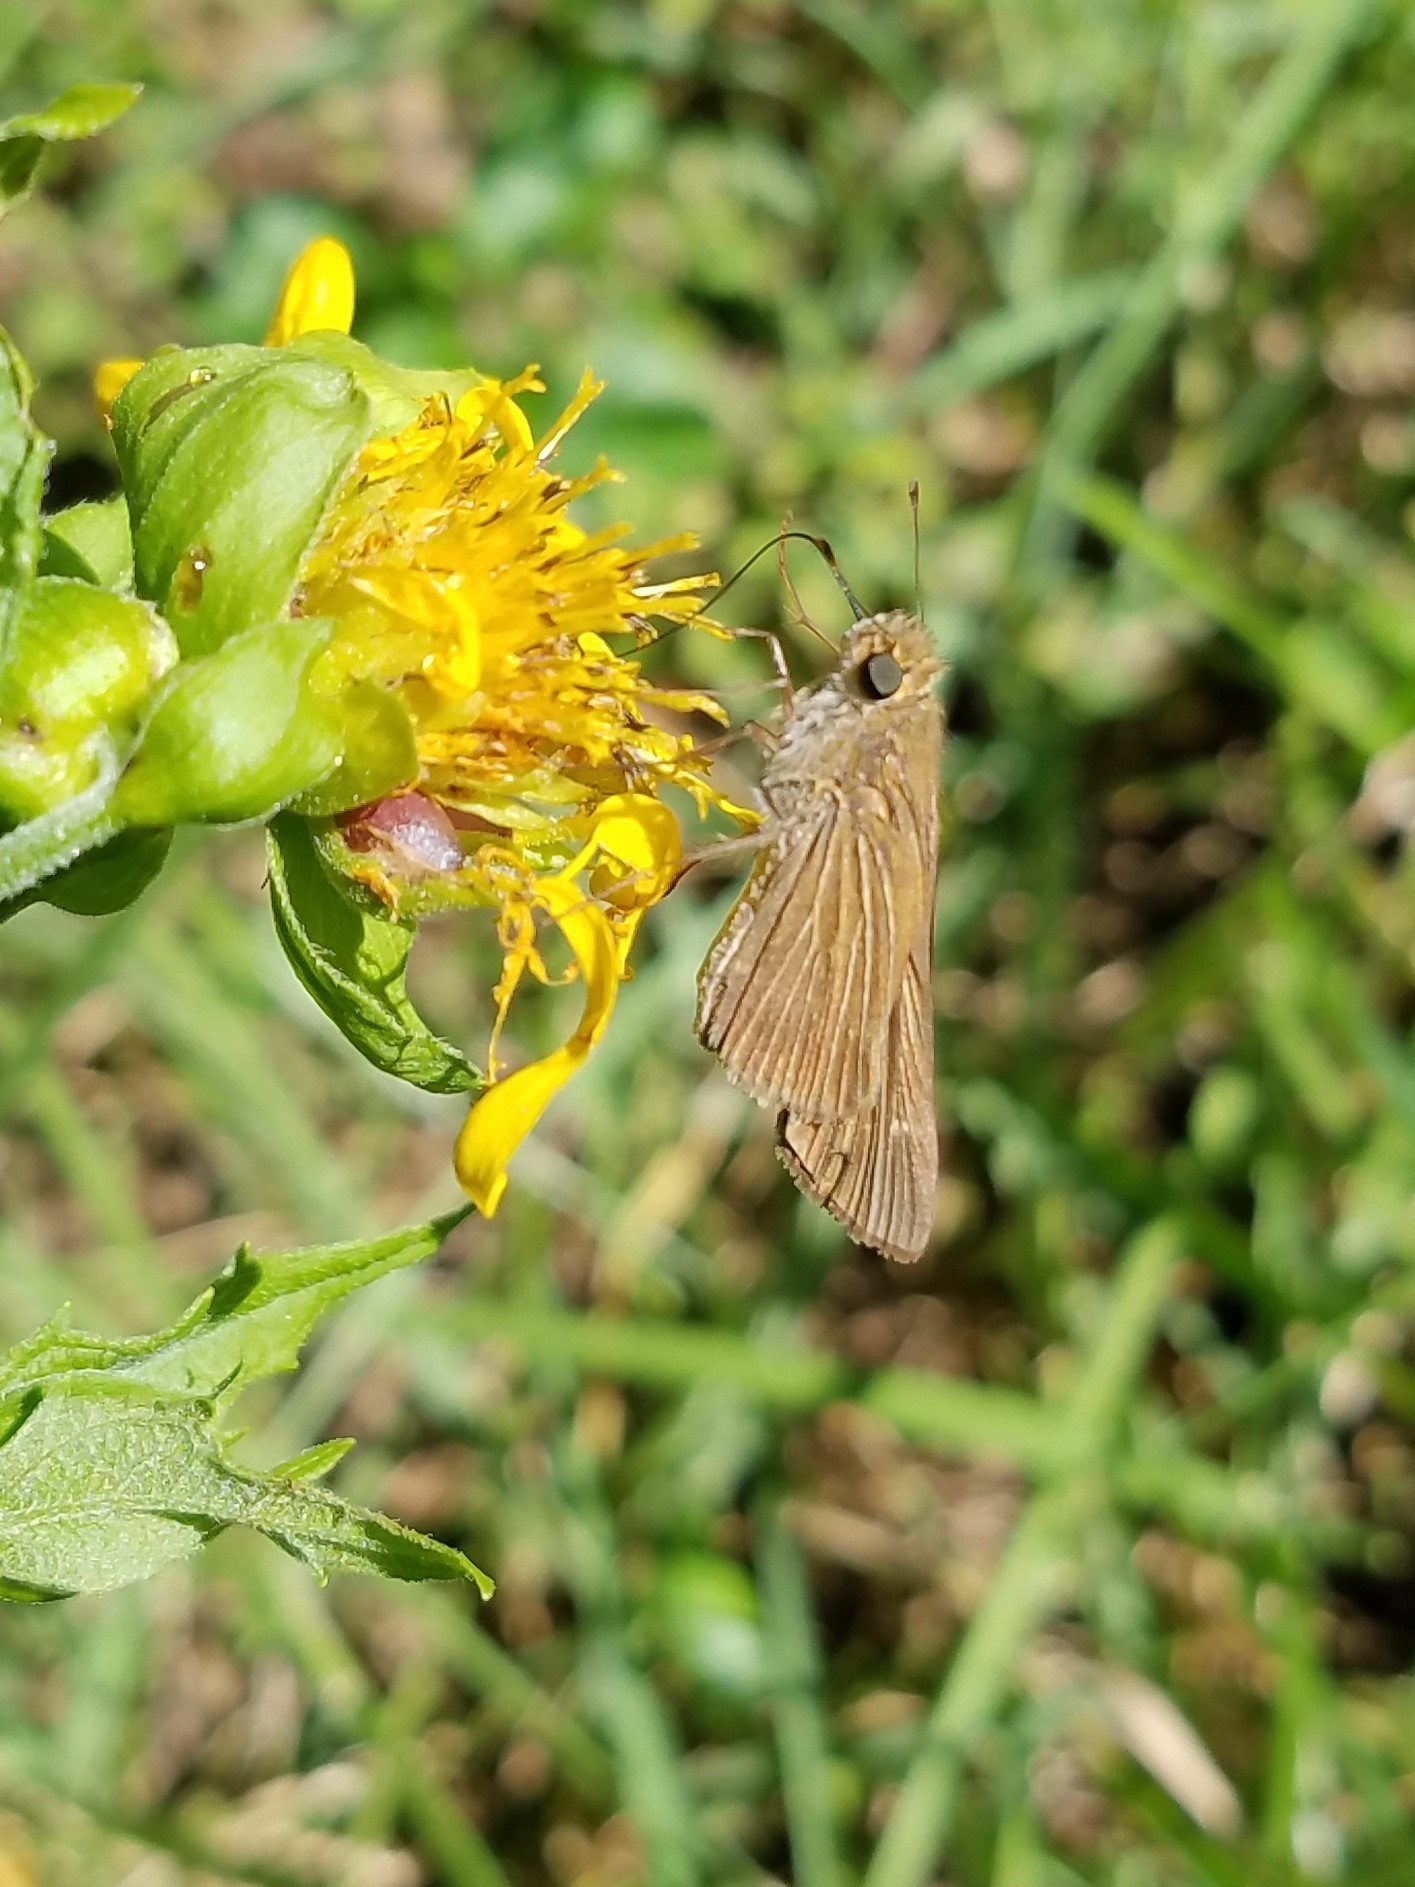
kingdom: Animalia
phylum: Arthropoda
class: Insecta
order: Lepidoptera
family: Hesperiidae
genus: Panoquina
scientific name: Panoquina ocola
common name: Ocola skipper
